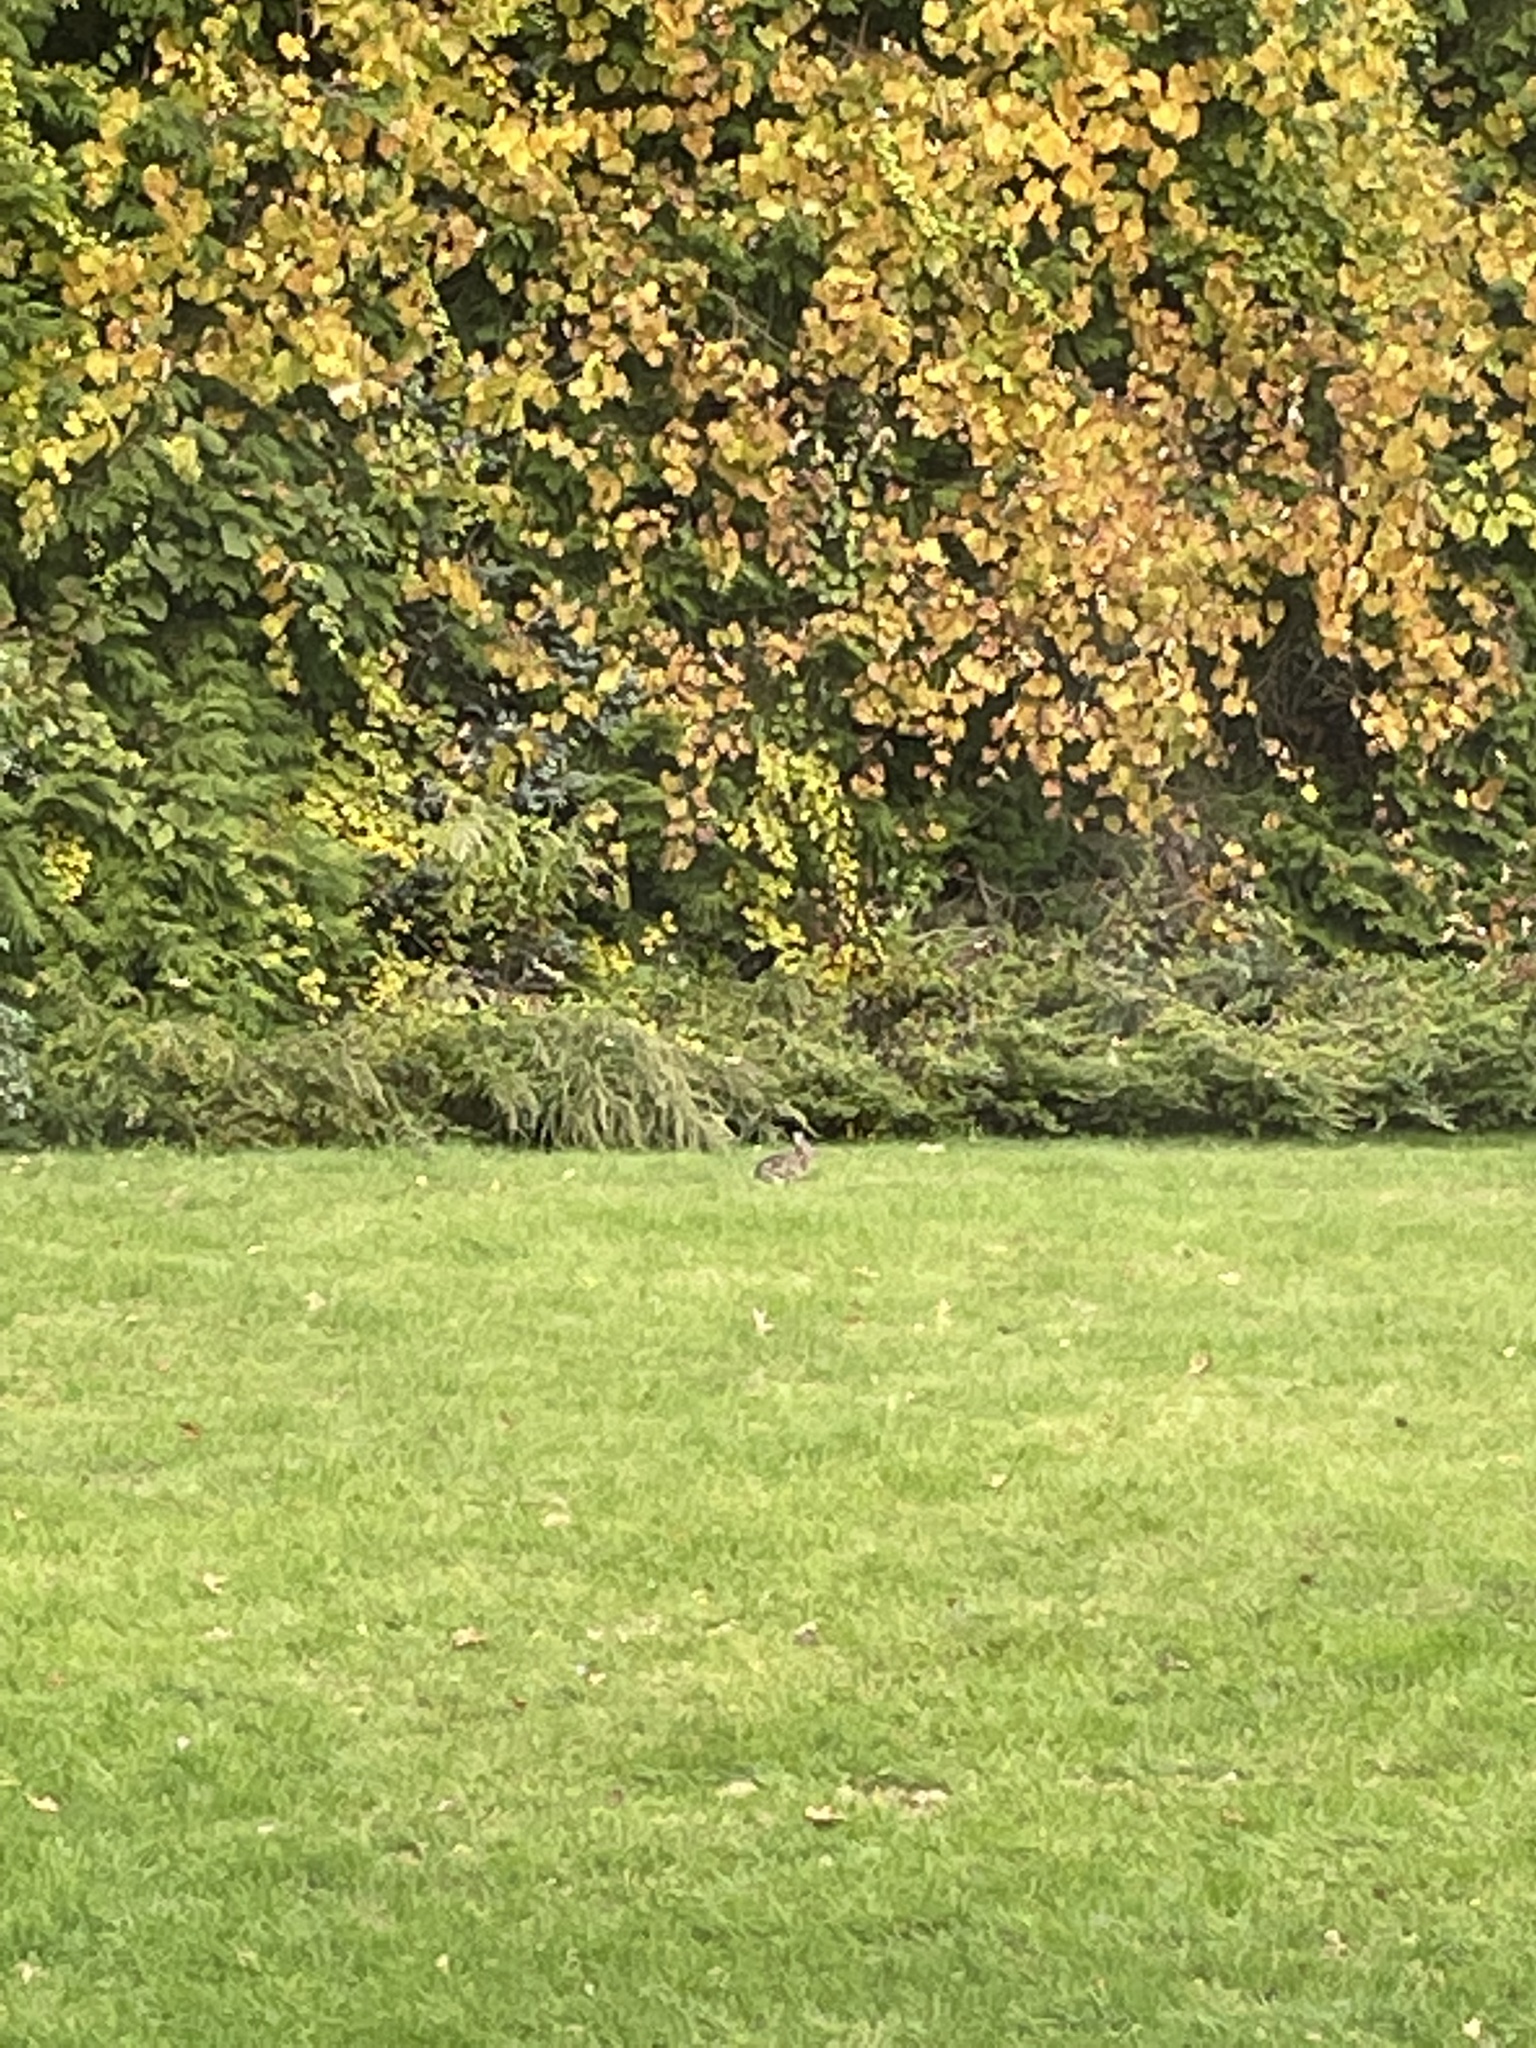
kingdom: Animalia
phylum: Chordata
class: Mammalia
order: Lagomorpha
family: Leporidae
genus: Sylvilagus
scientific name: Sylvilagus floridanus
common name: Eastern cottontail
